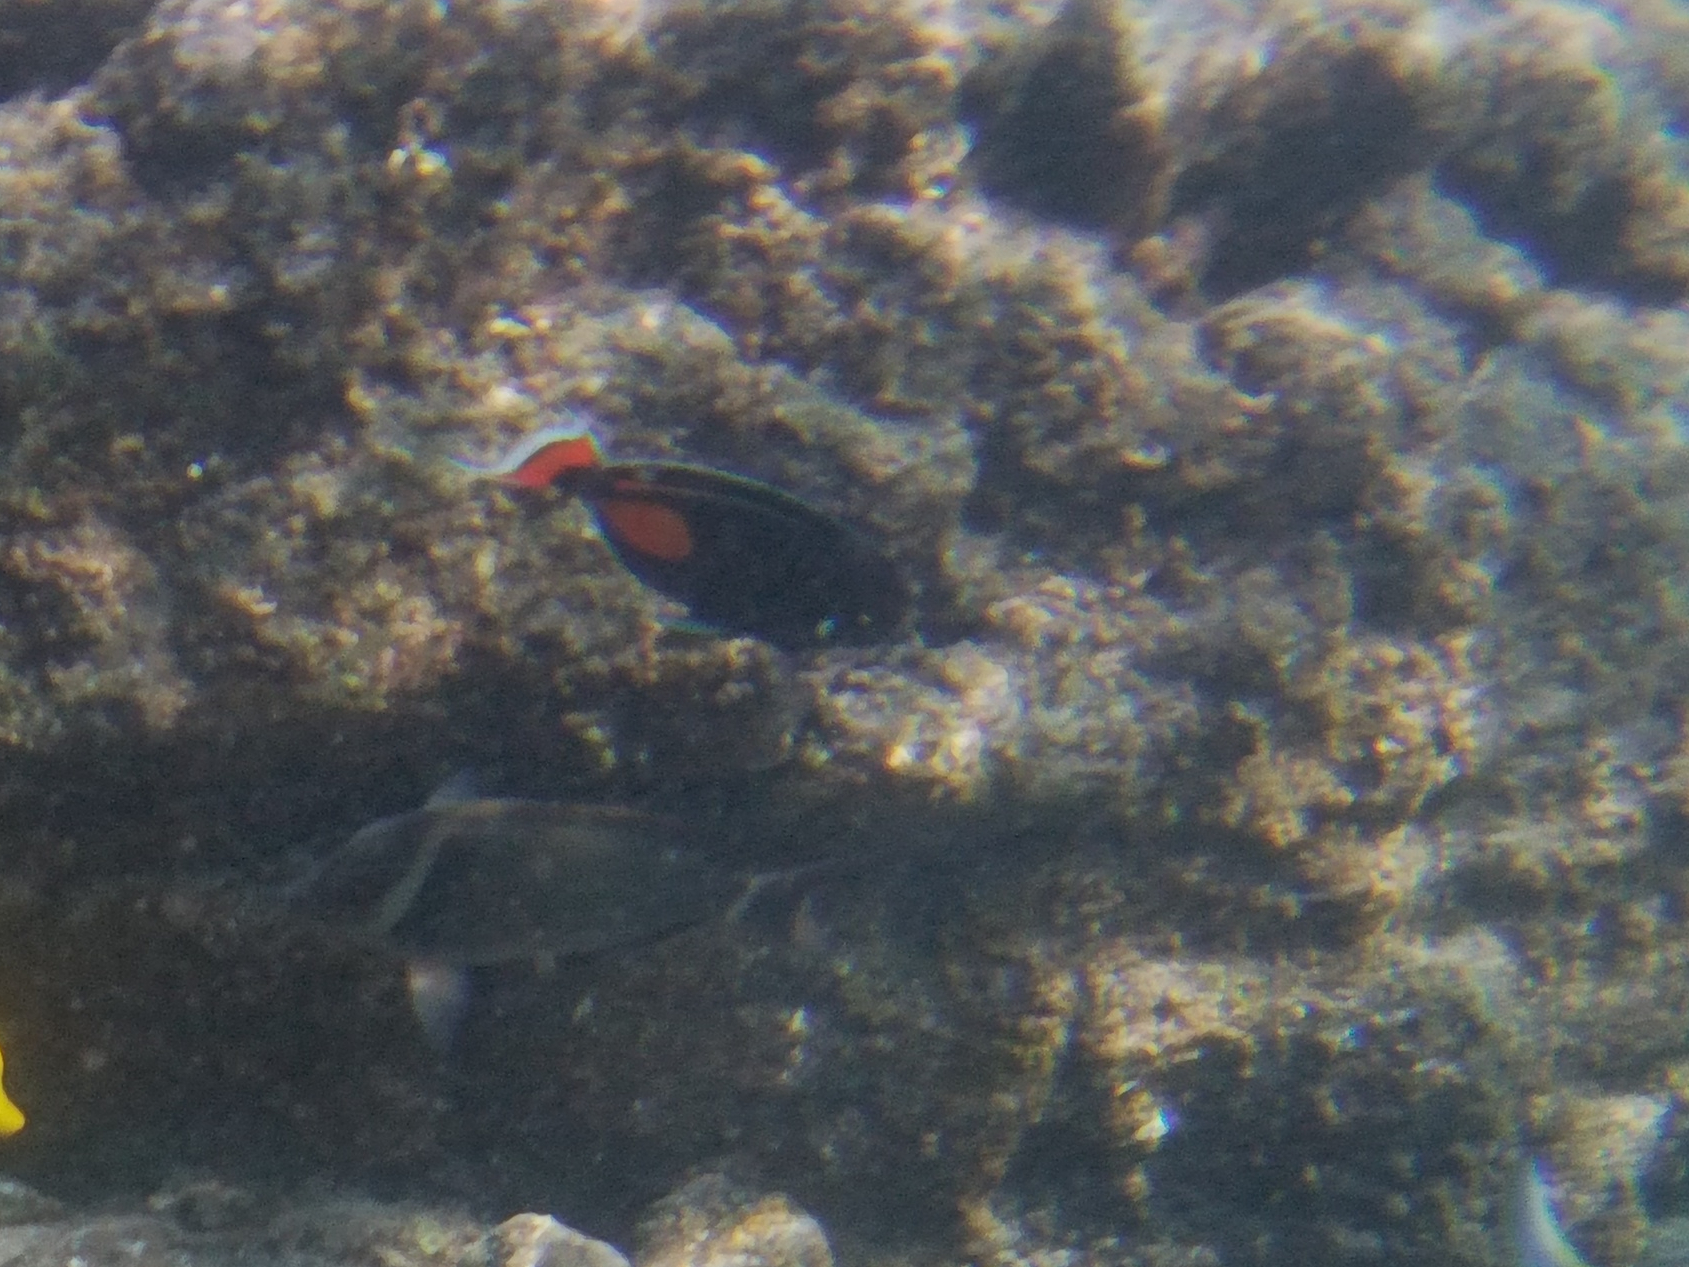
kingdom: Animalia
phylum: Chordata
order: Perciformes
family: Acanthuridae
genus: Acanthurus
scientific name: Acanthurus achilles
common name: Achilles tang
